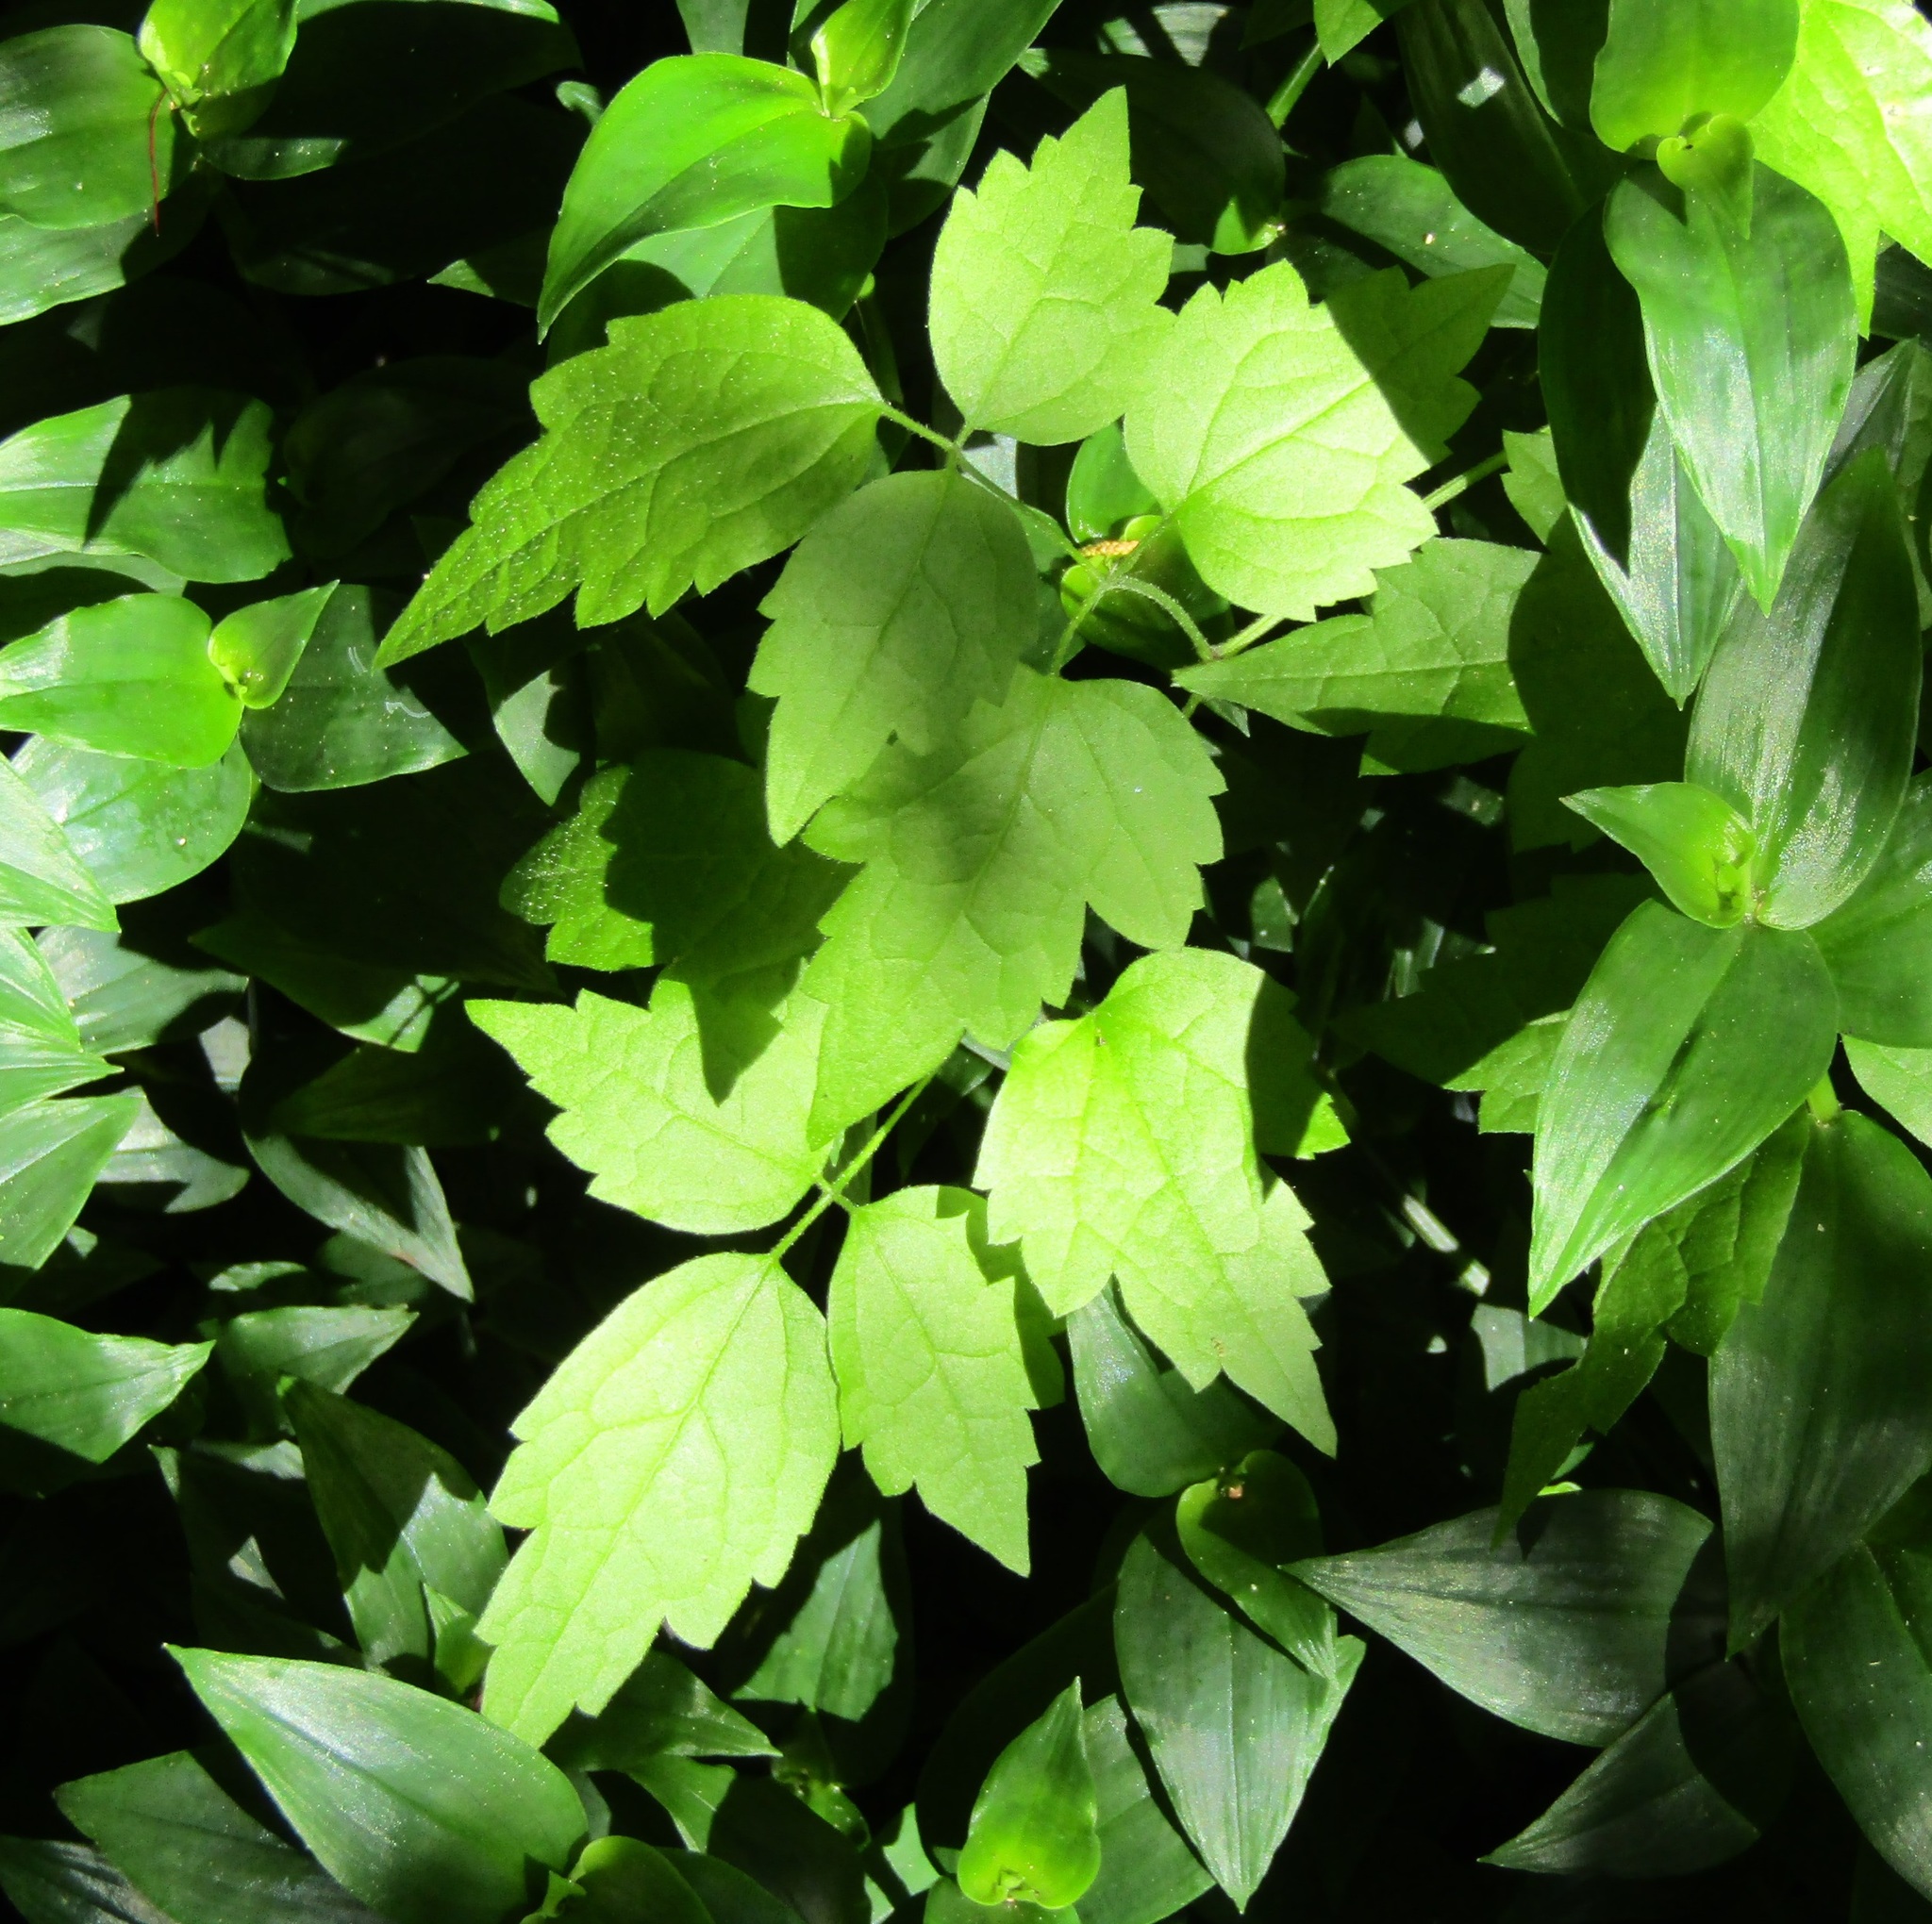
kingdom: Plantae
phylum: Tracheophyta
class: Magnoliopsida
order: Ranunculales
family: Ranunculaceae
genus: Clematis
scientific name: Clematis vitalba
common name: Evergreen clematis
